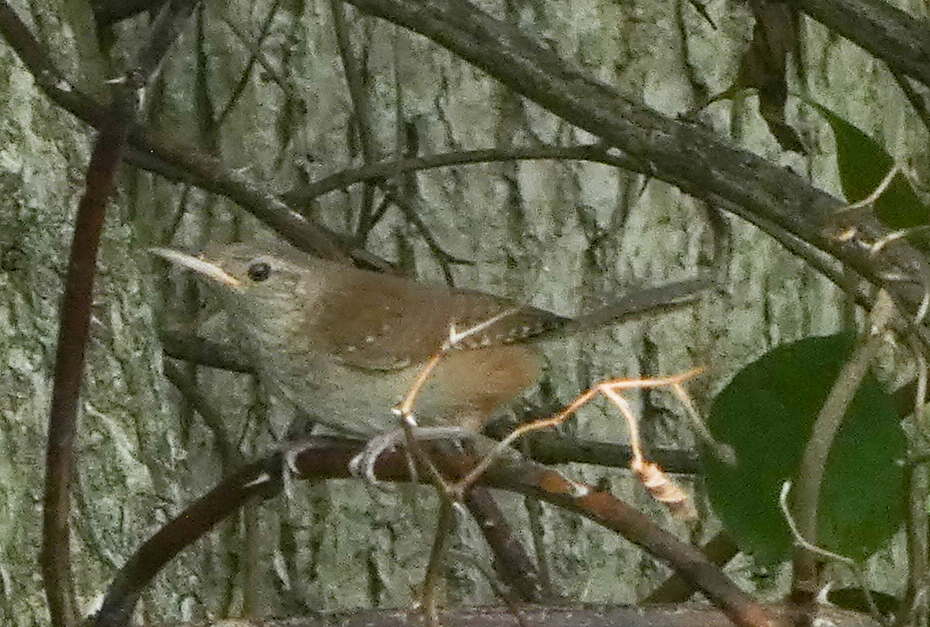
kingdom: Animalia
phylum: Chordata
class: Aves
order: Passeriformes
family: Troglodytidae
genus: Troglodytes
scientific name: Troglodytes aedon
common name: House wren
